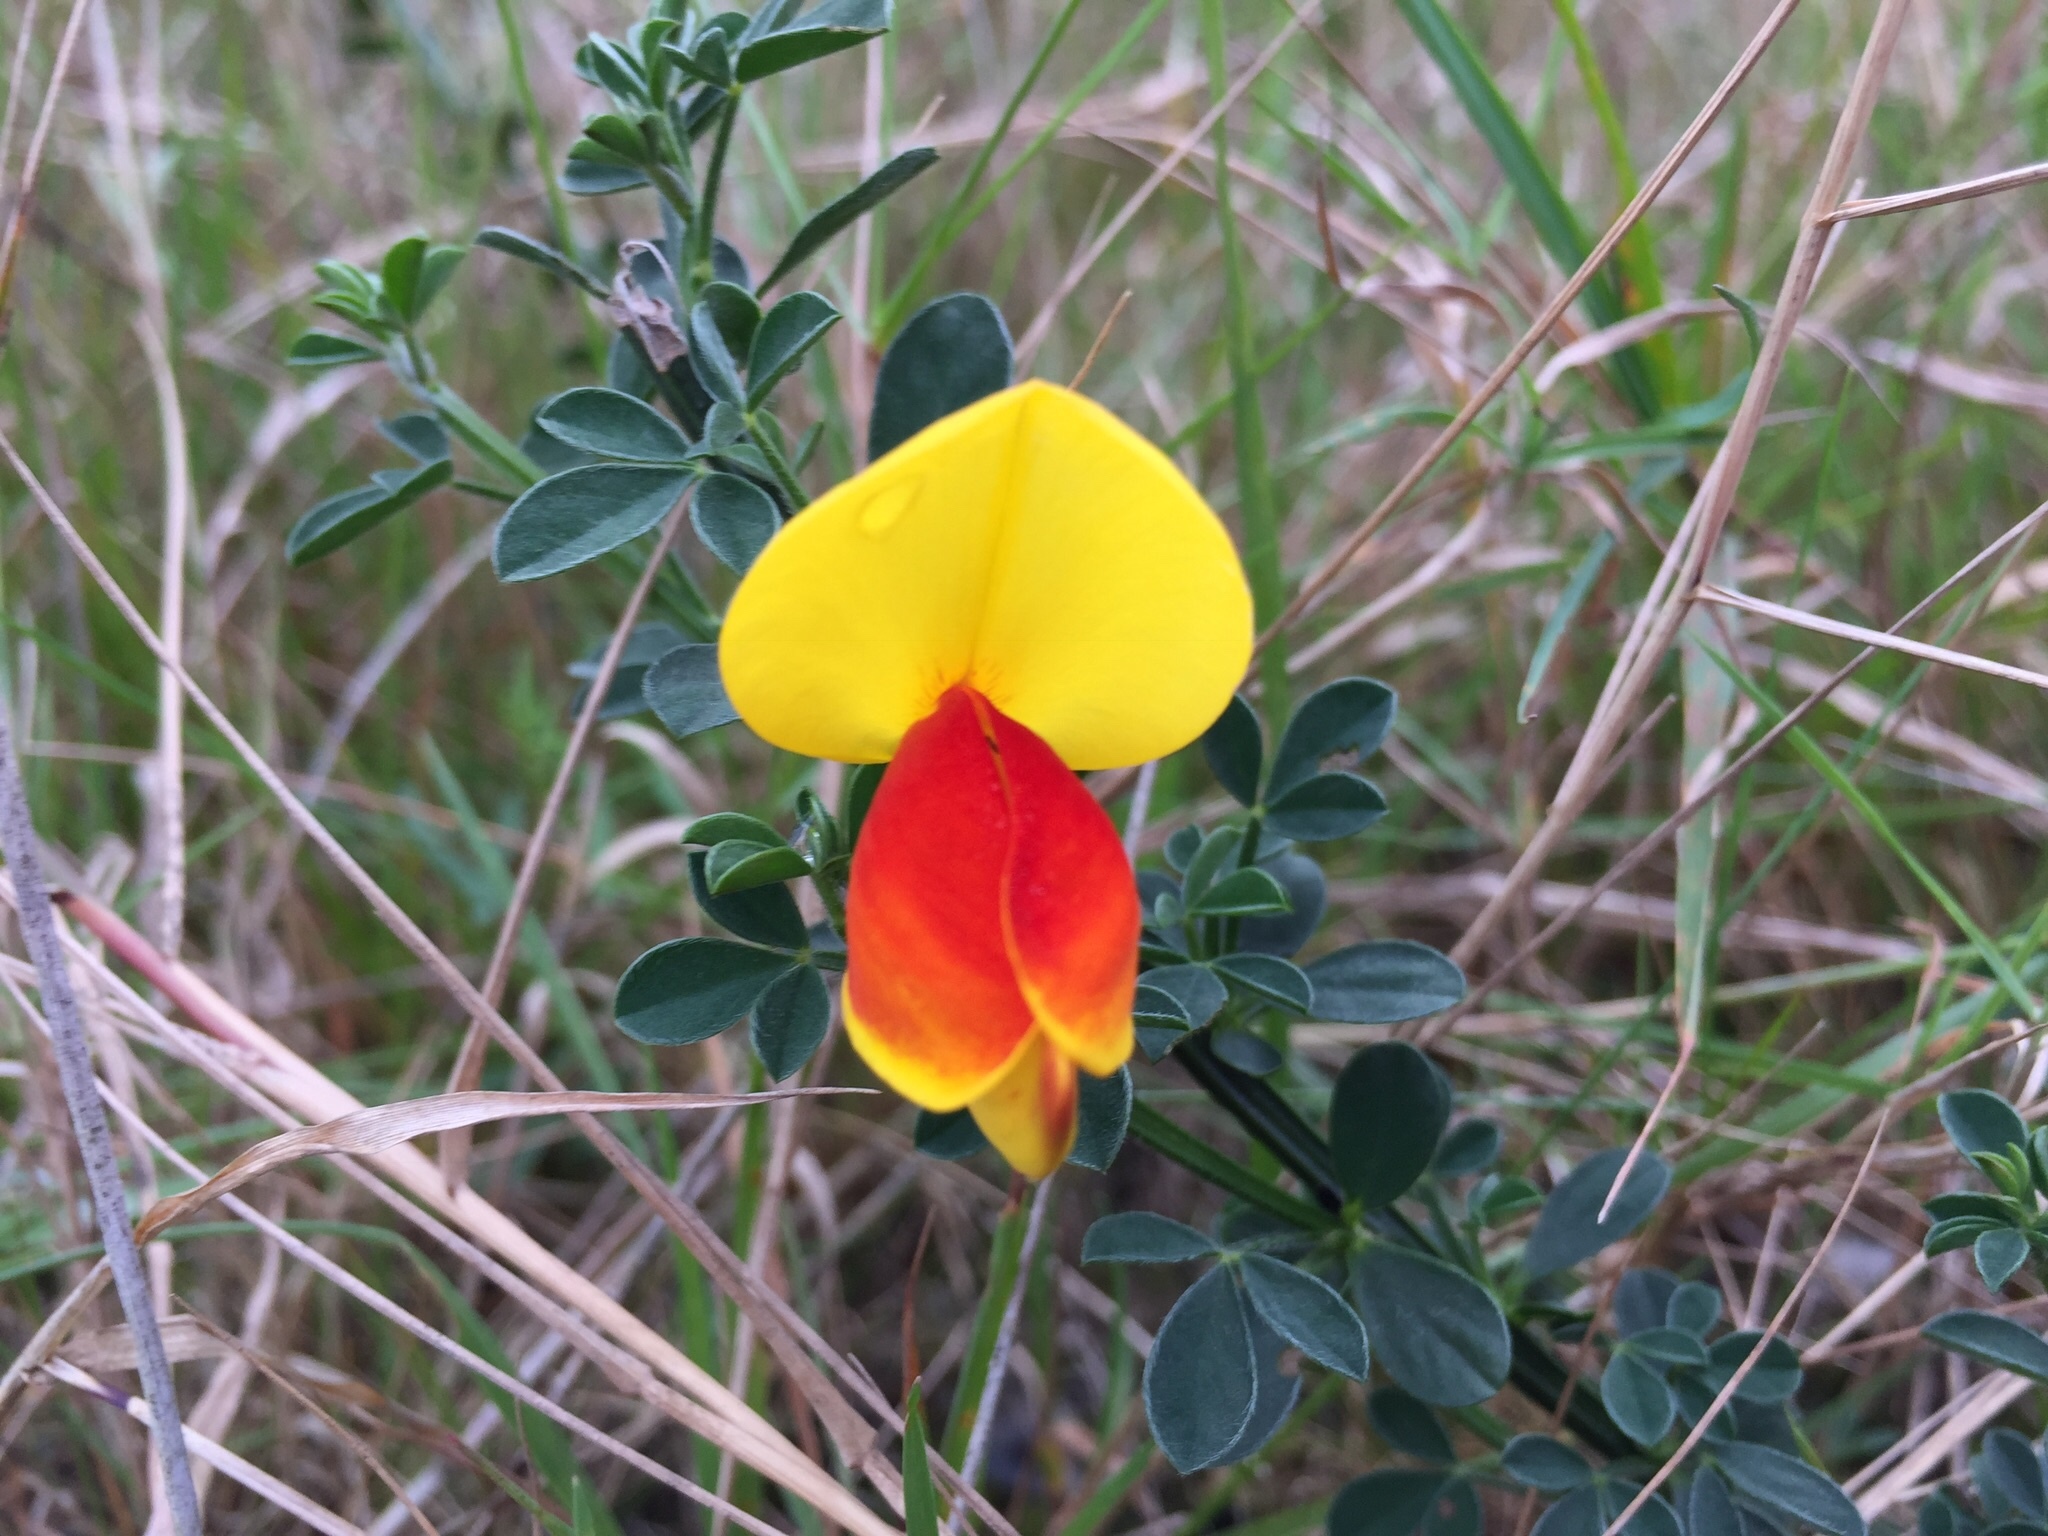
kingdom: Plantae
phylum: Tracheophyta
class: Magnoliopsida
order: Fabales
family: Fabaceae
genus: Cytisus
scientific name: Cytisus scoparius
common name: Scotch broom
